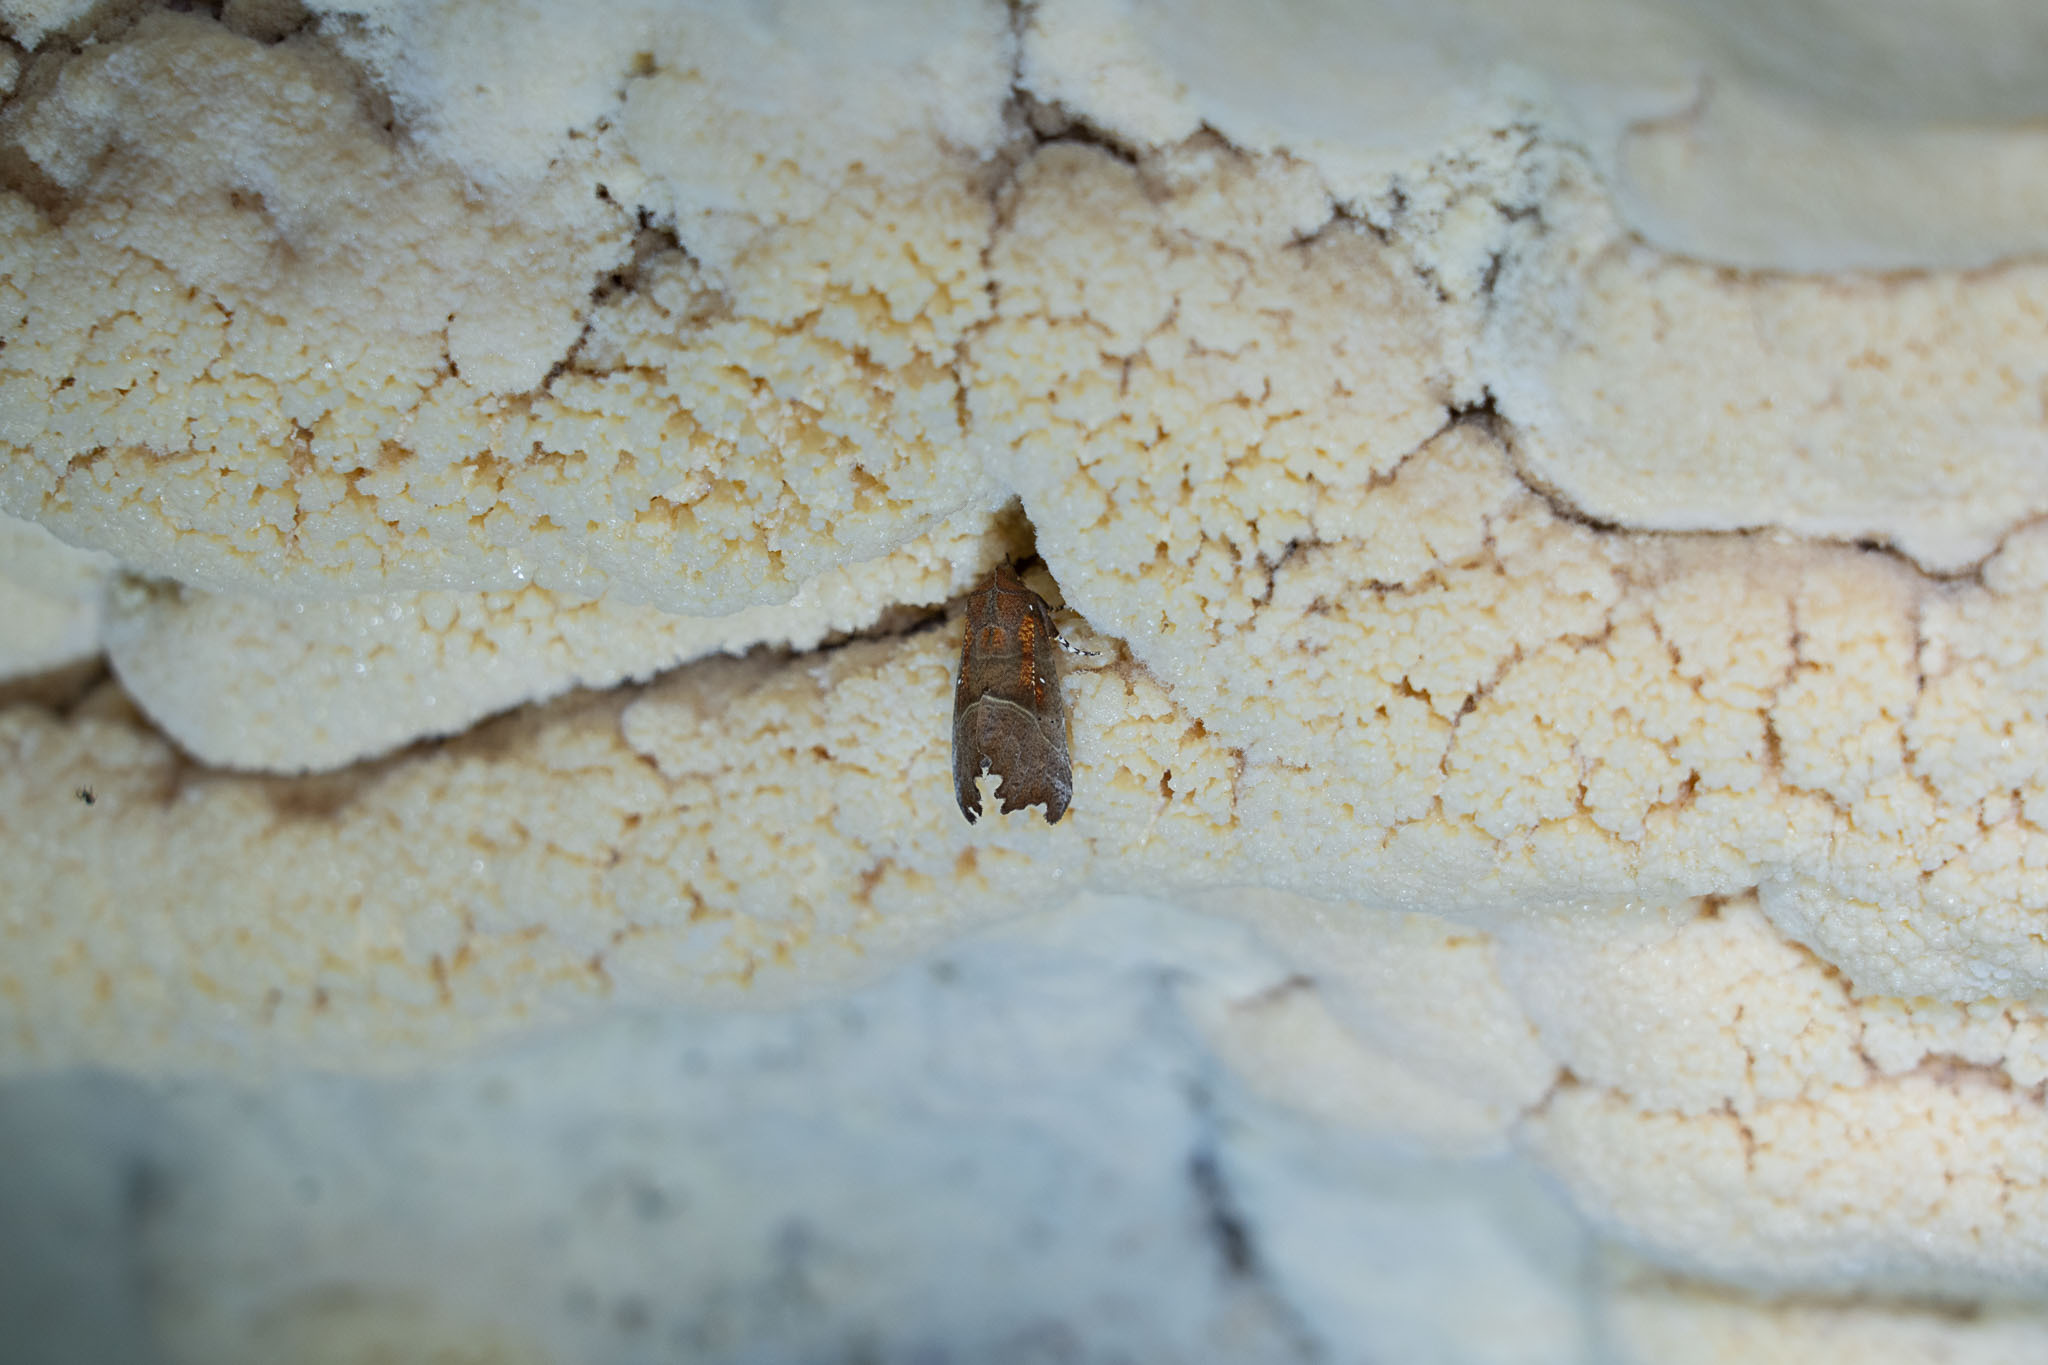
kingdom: Animalia
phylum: Arthropoda
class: Insecta
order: Lepidoptera
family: Erebidae
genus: Scoliopteryx
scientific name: Scoliopteryx libatrix
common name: Herald
